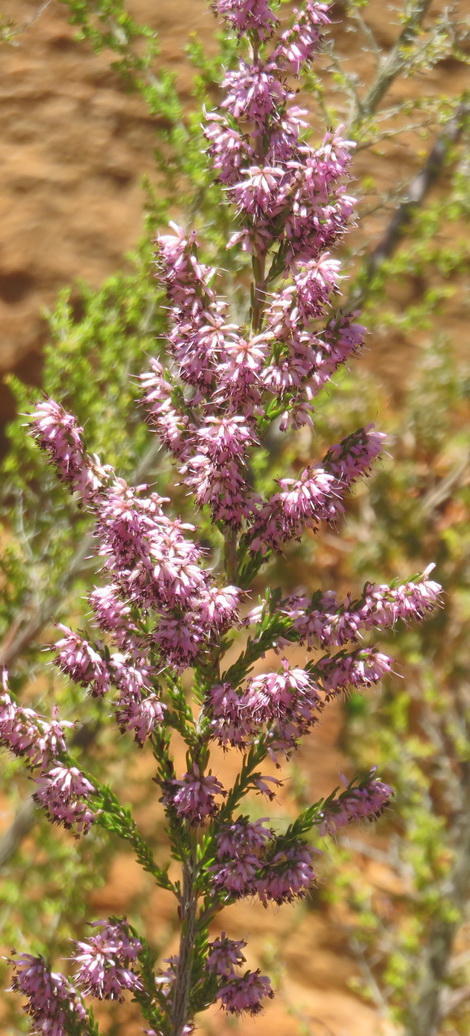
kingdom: Plantae
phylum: Tracheophyta
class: Magnoliopsida
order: Ericales
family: Ericaceae
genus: Erica
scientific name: Erica uberiflora
